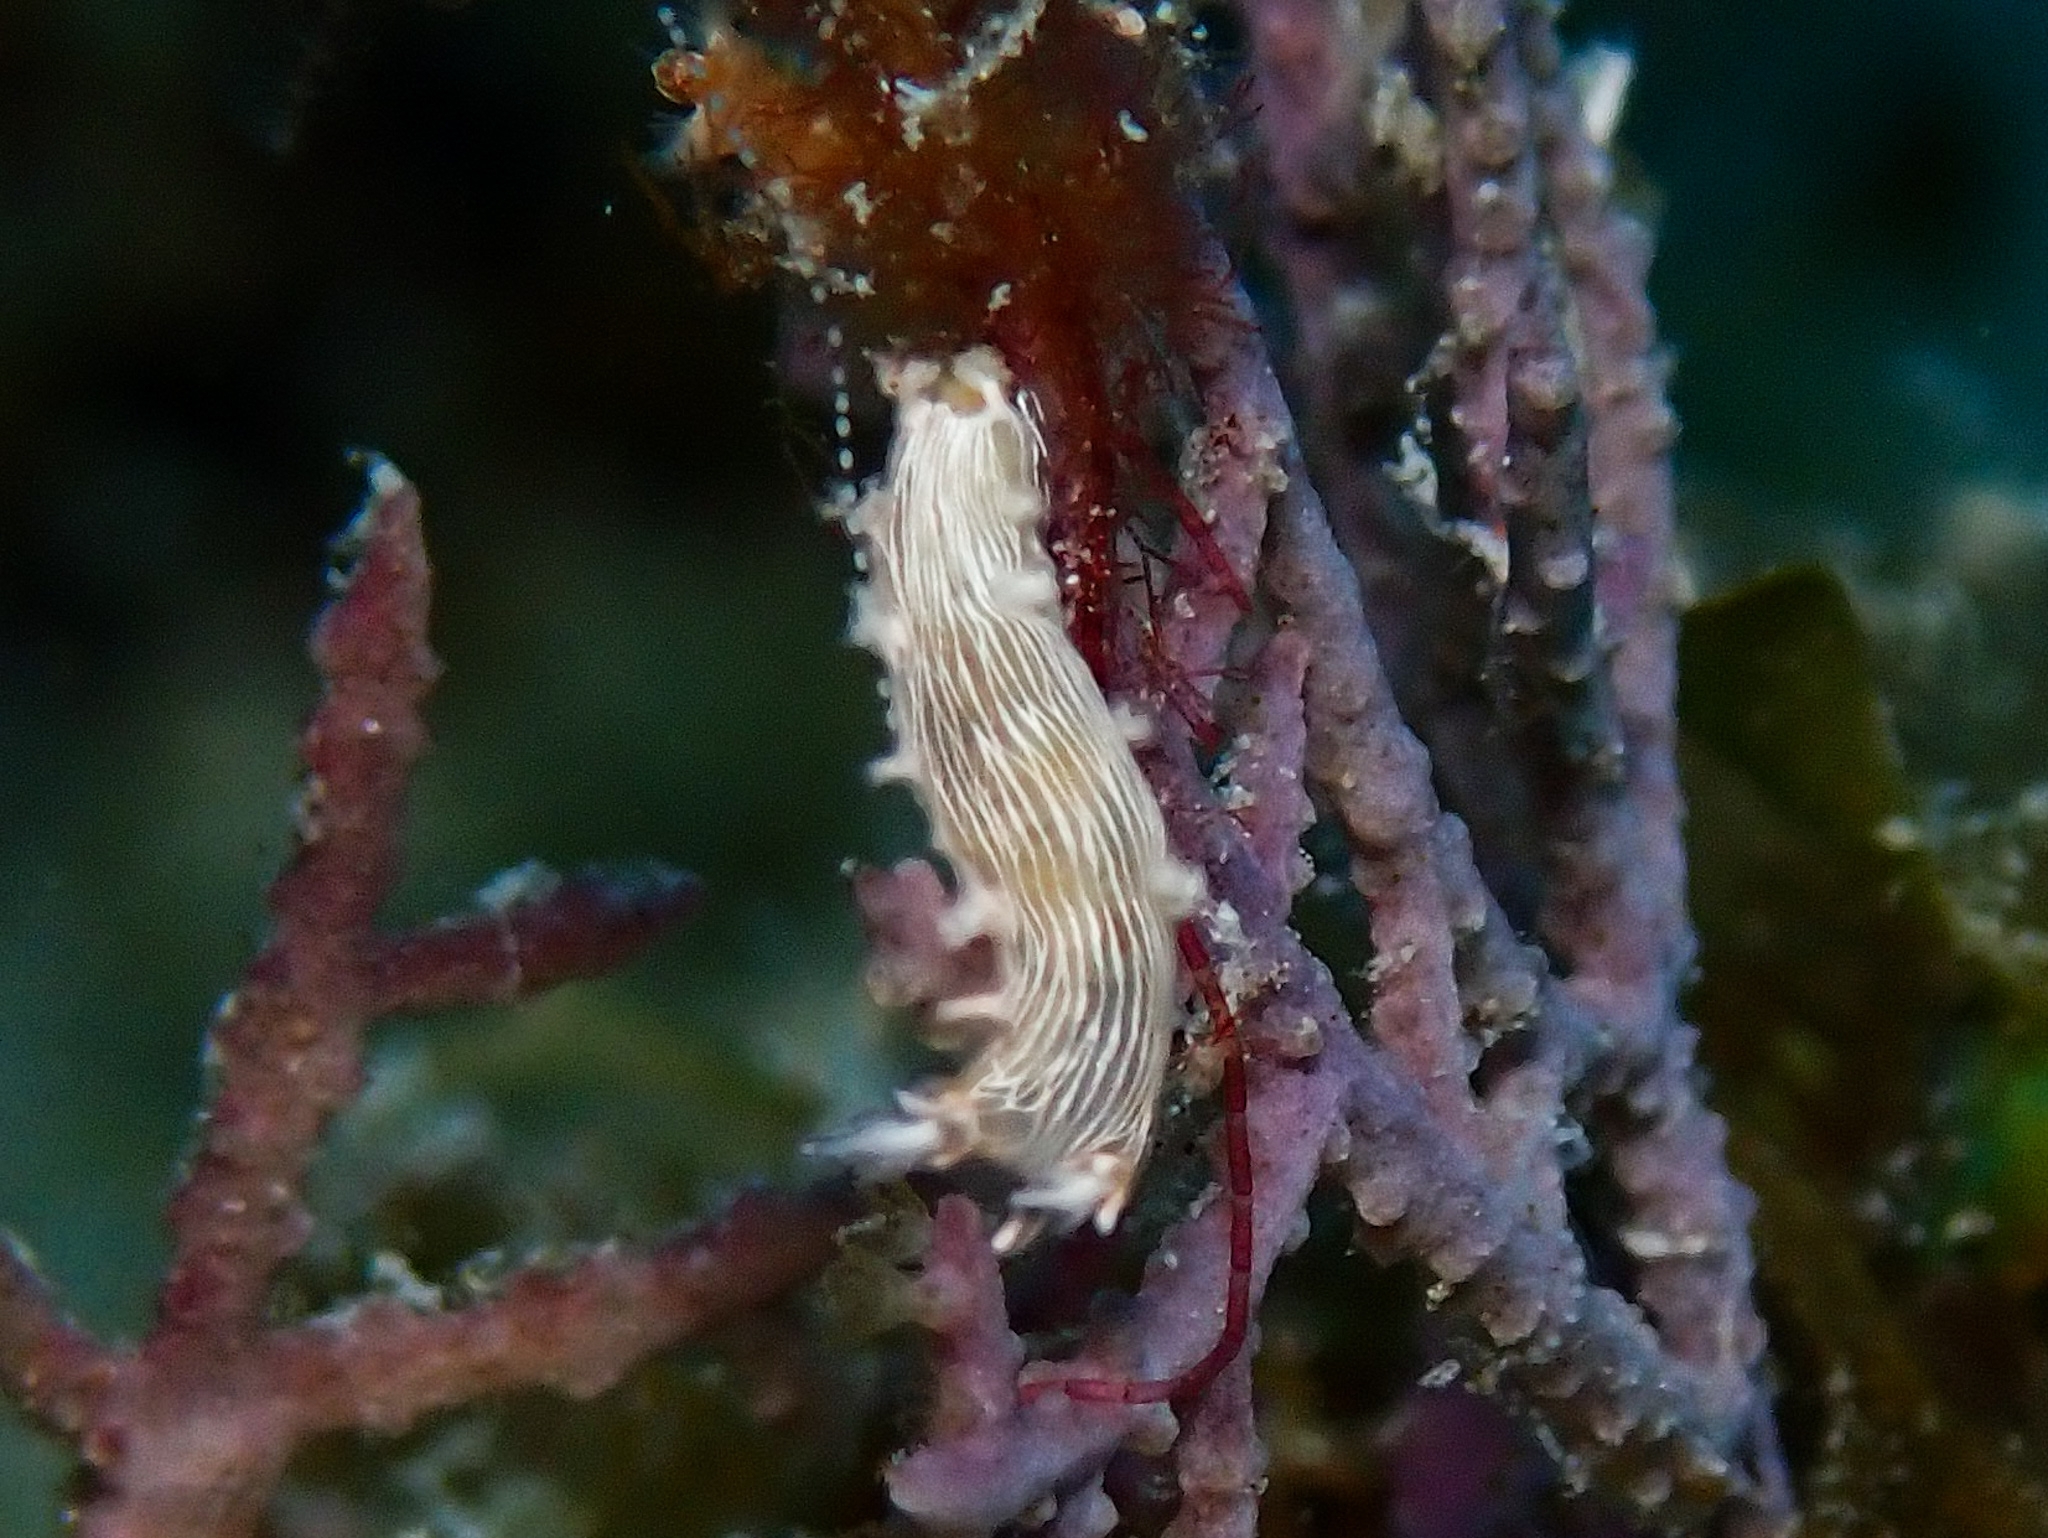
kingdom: Animalia
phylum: Mollusca
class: Gastropoda
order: Nudibranchia
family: Tritoniidae
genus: Tritonicula
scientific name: Tritonicula hamnerorum
